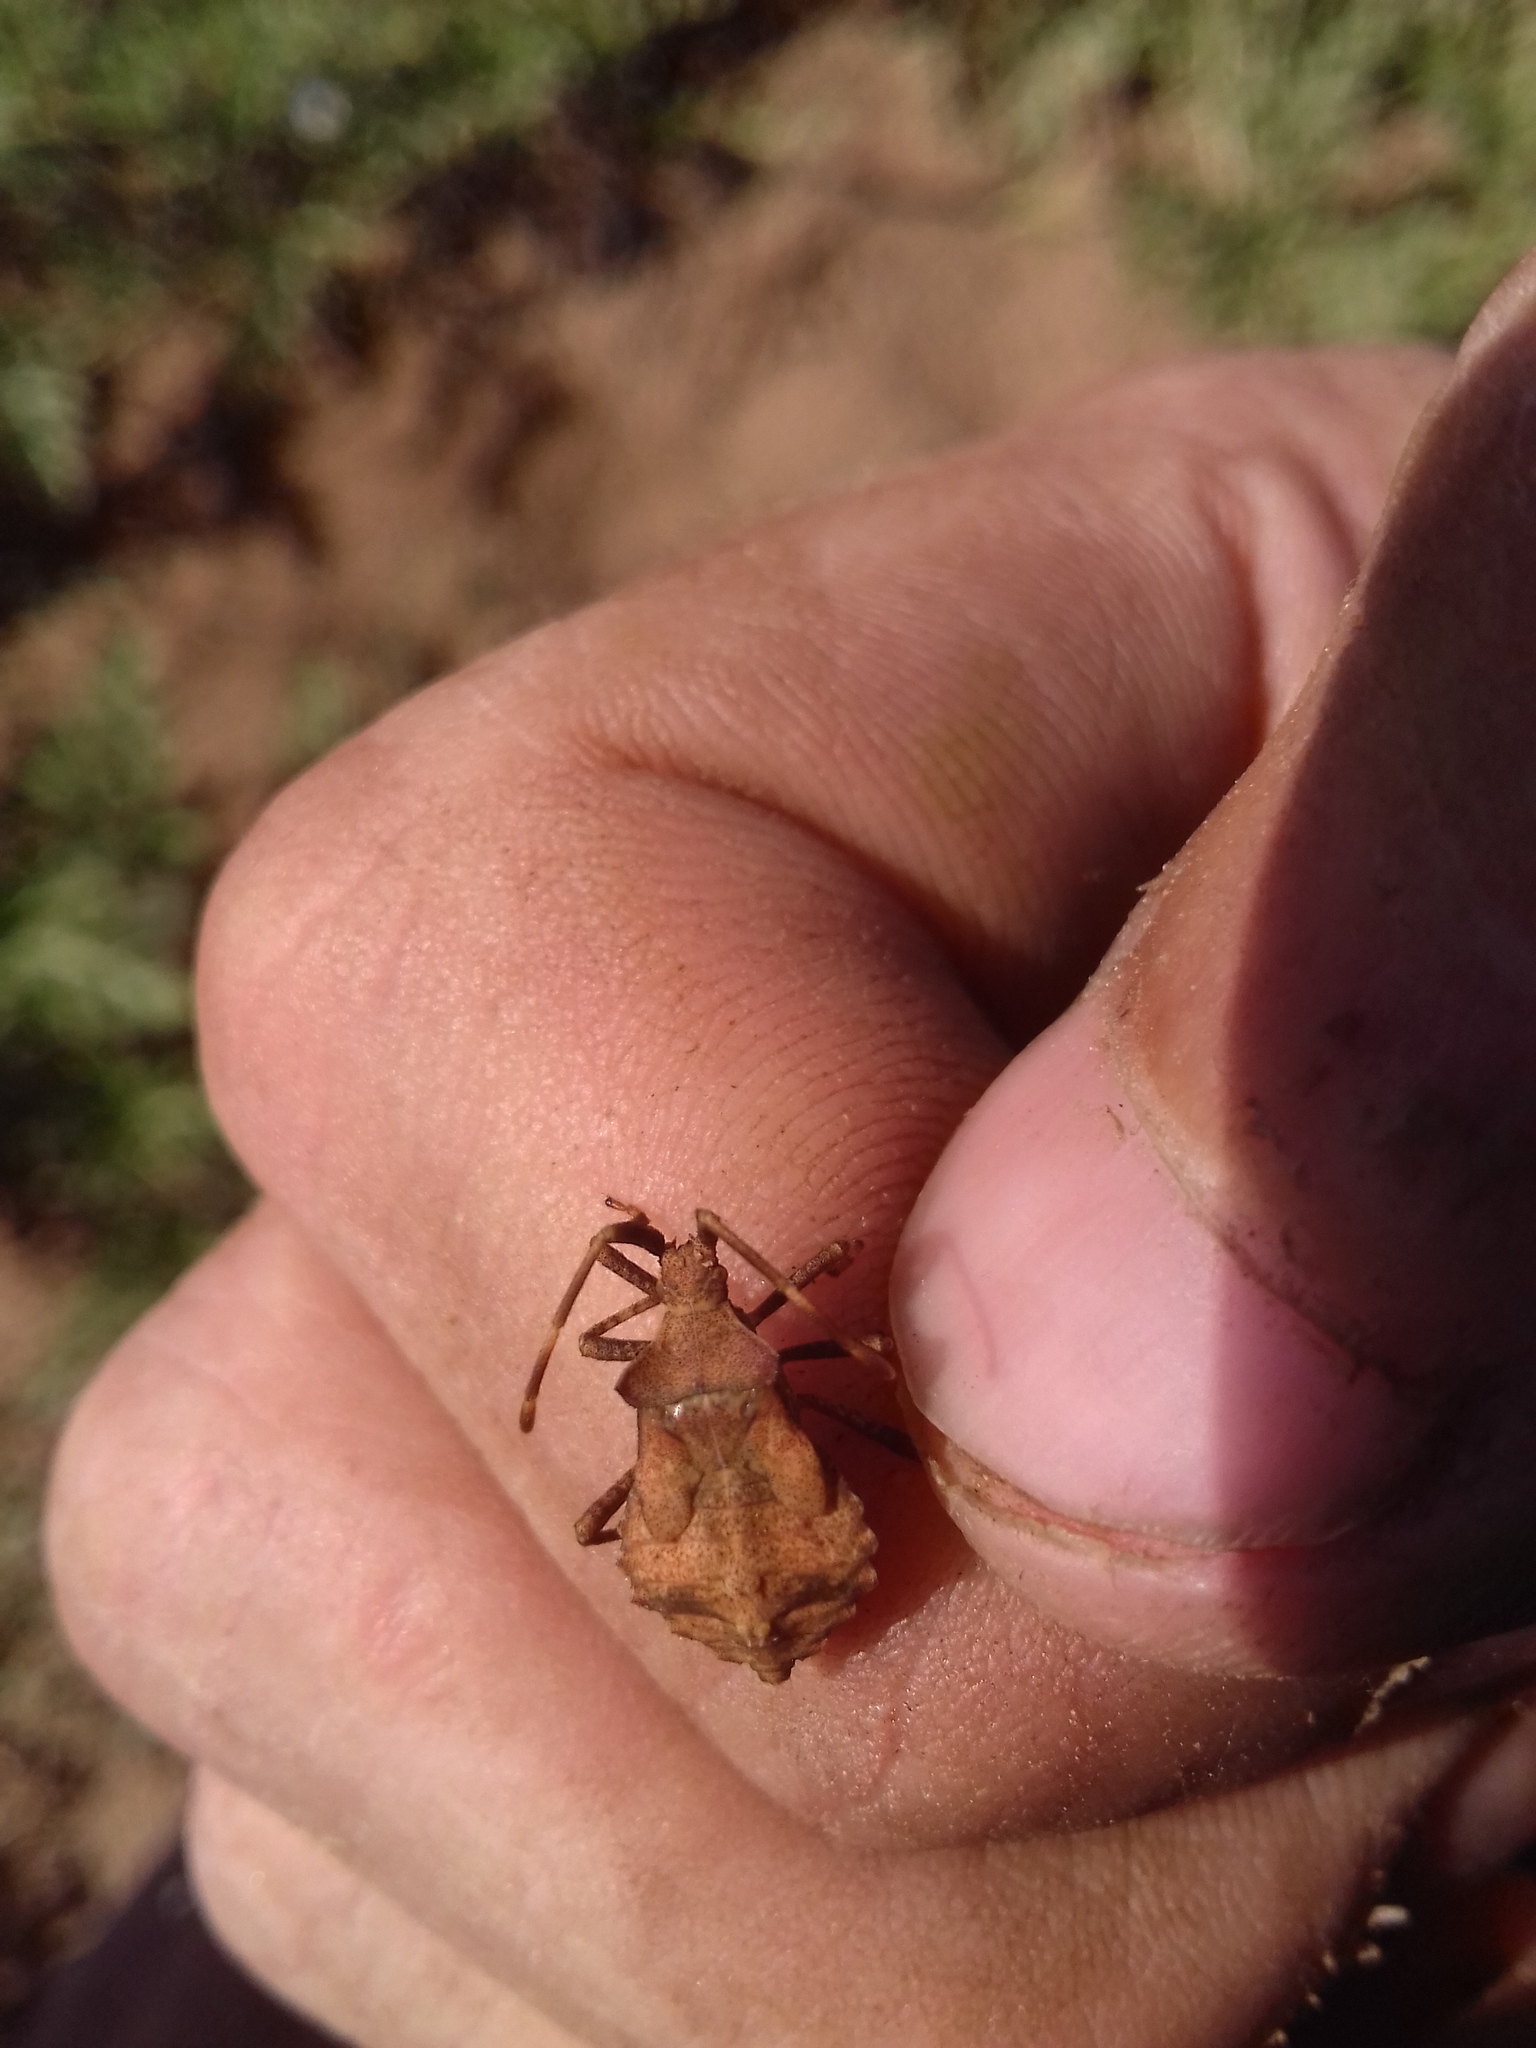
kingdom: Animalia
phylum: Arthropoda
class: Insecta
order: Hemiptera
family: Coreidae
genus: Coreus
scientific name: Coreus marginatus
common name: Dock bug
